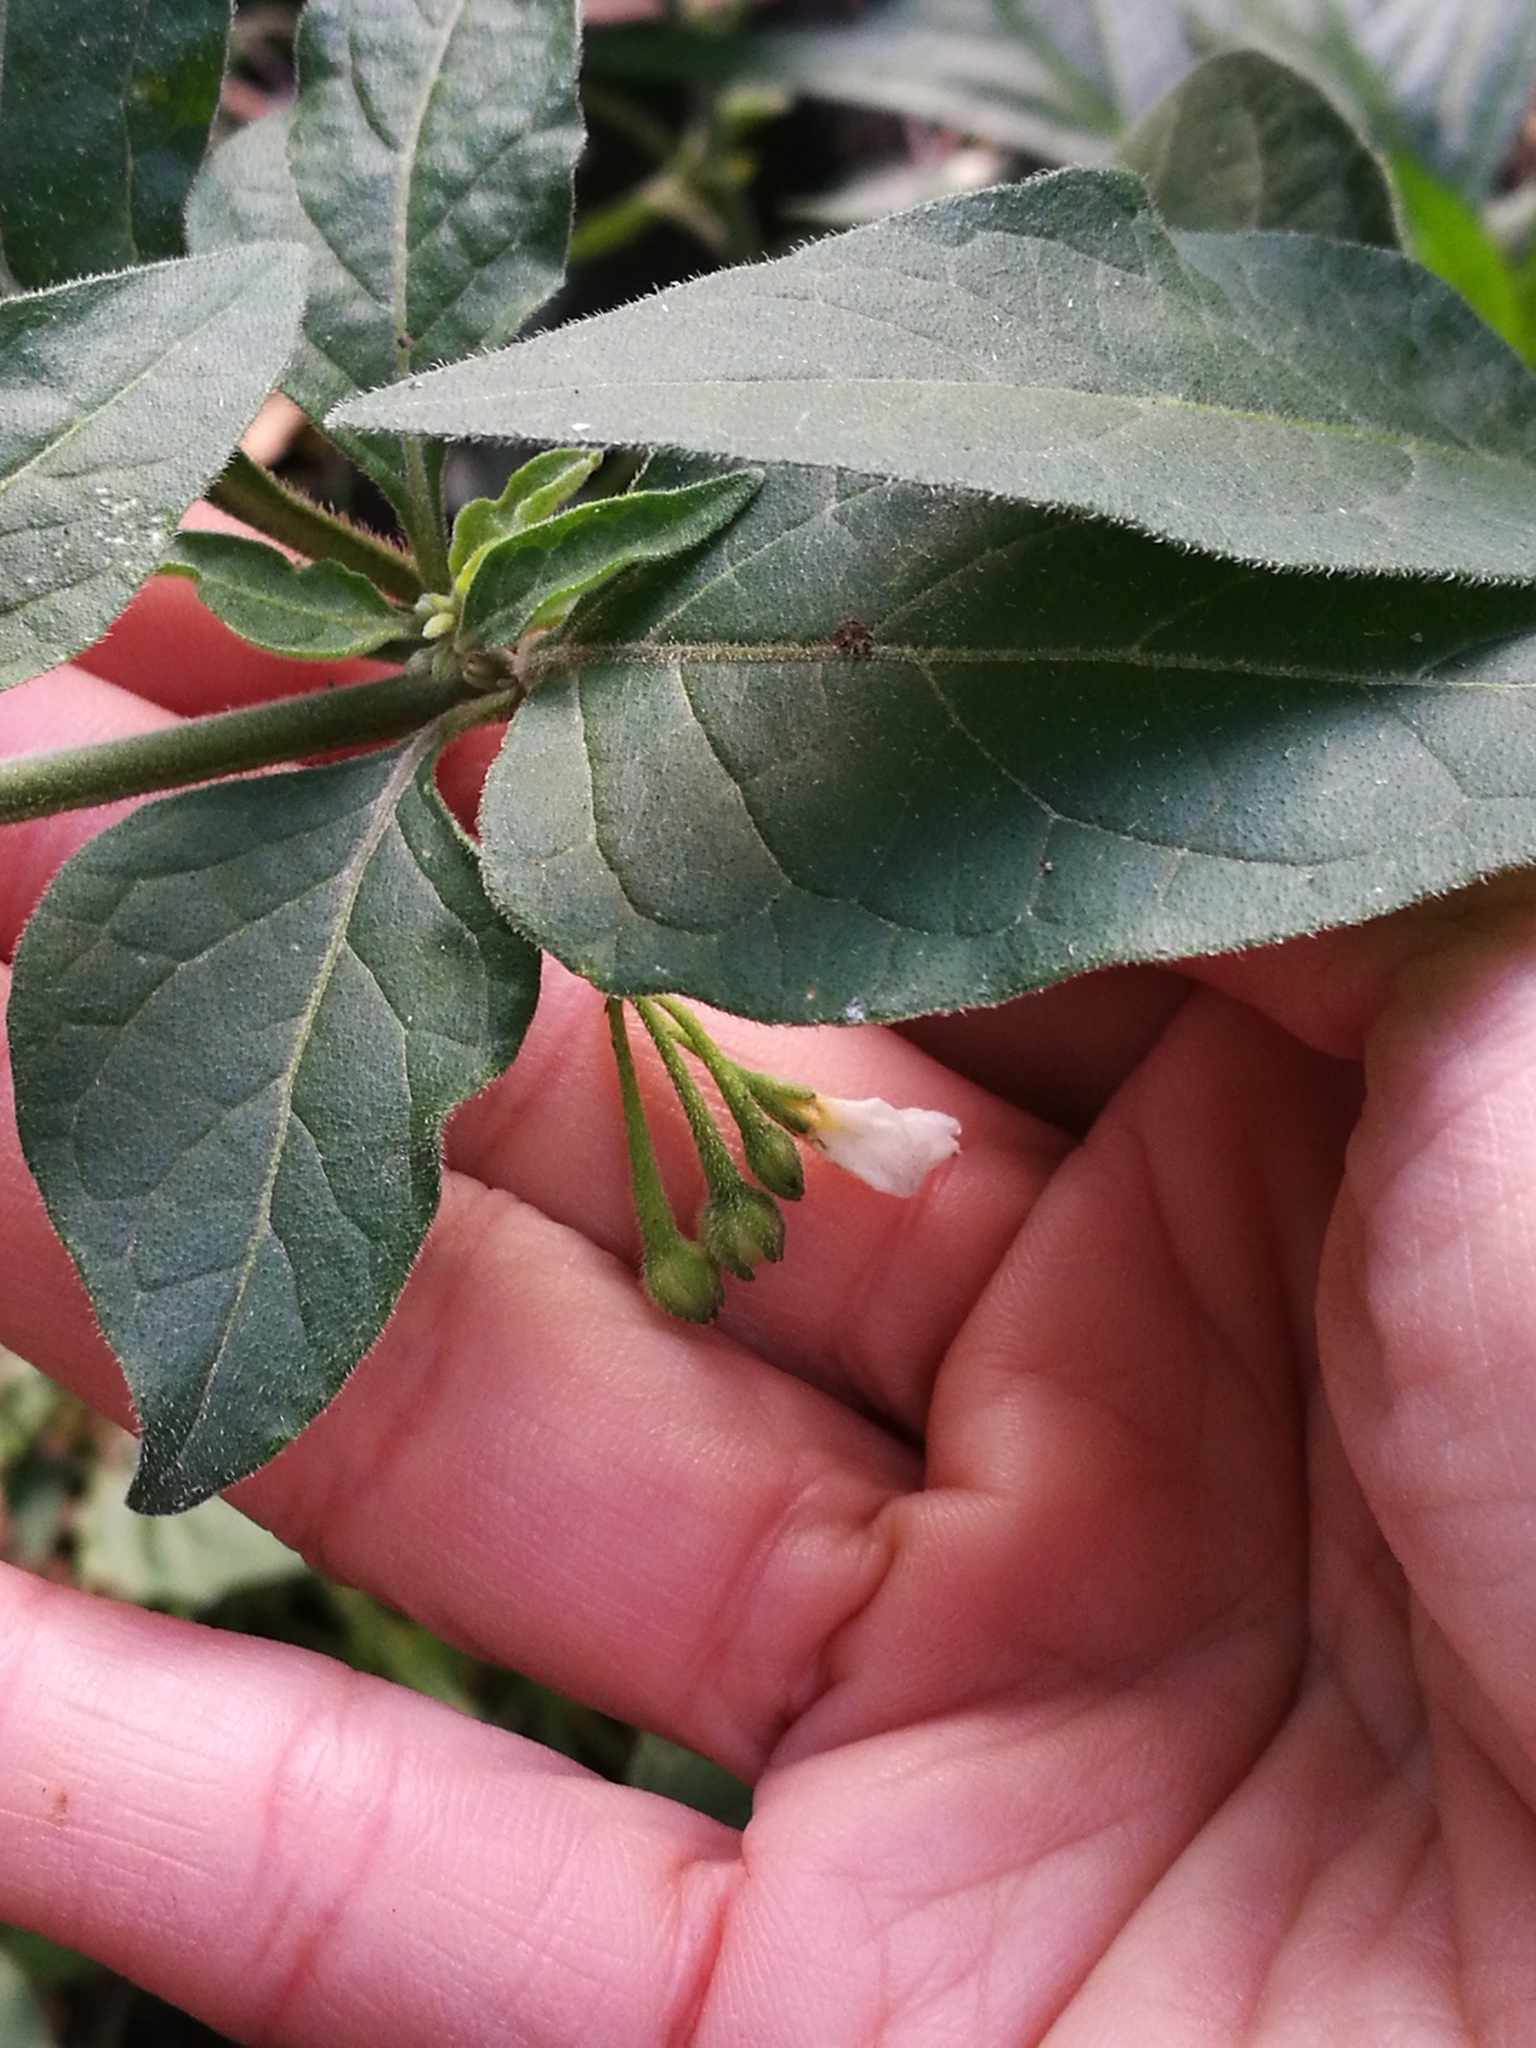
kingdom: Plantae
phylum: Tracheophyta
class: Magnoliopsida
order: Solanales
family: Solanaceae
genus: Solanum
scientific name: Solanum chenopodioides
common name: Tall nightshade
